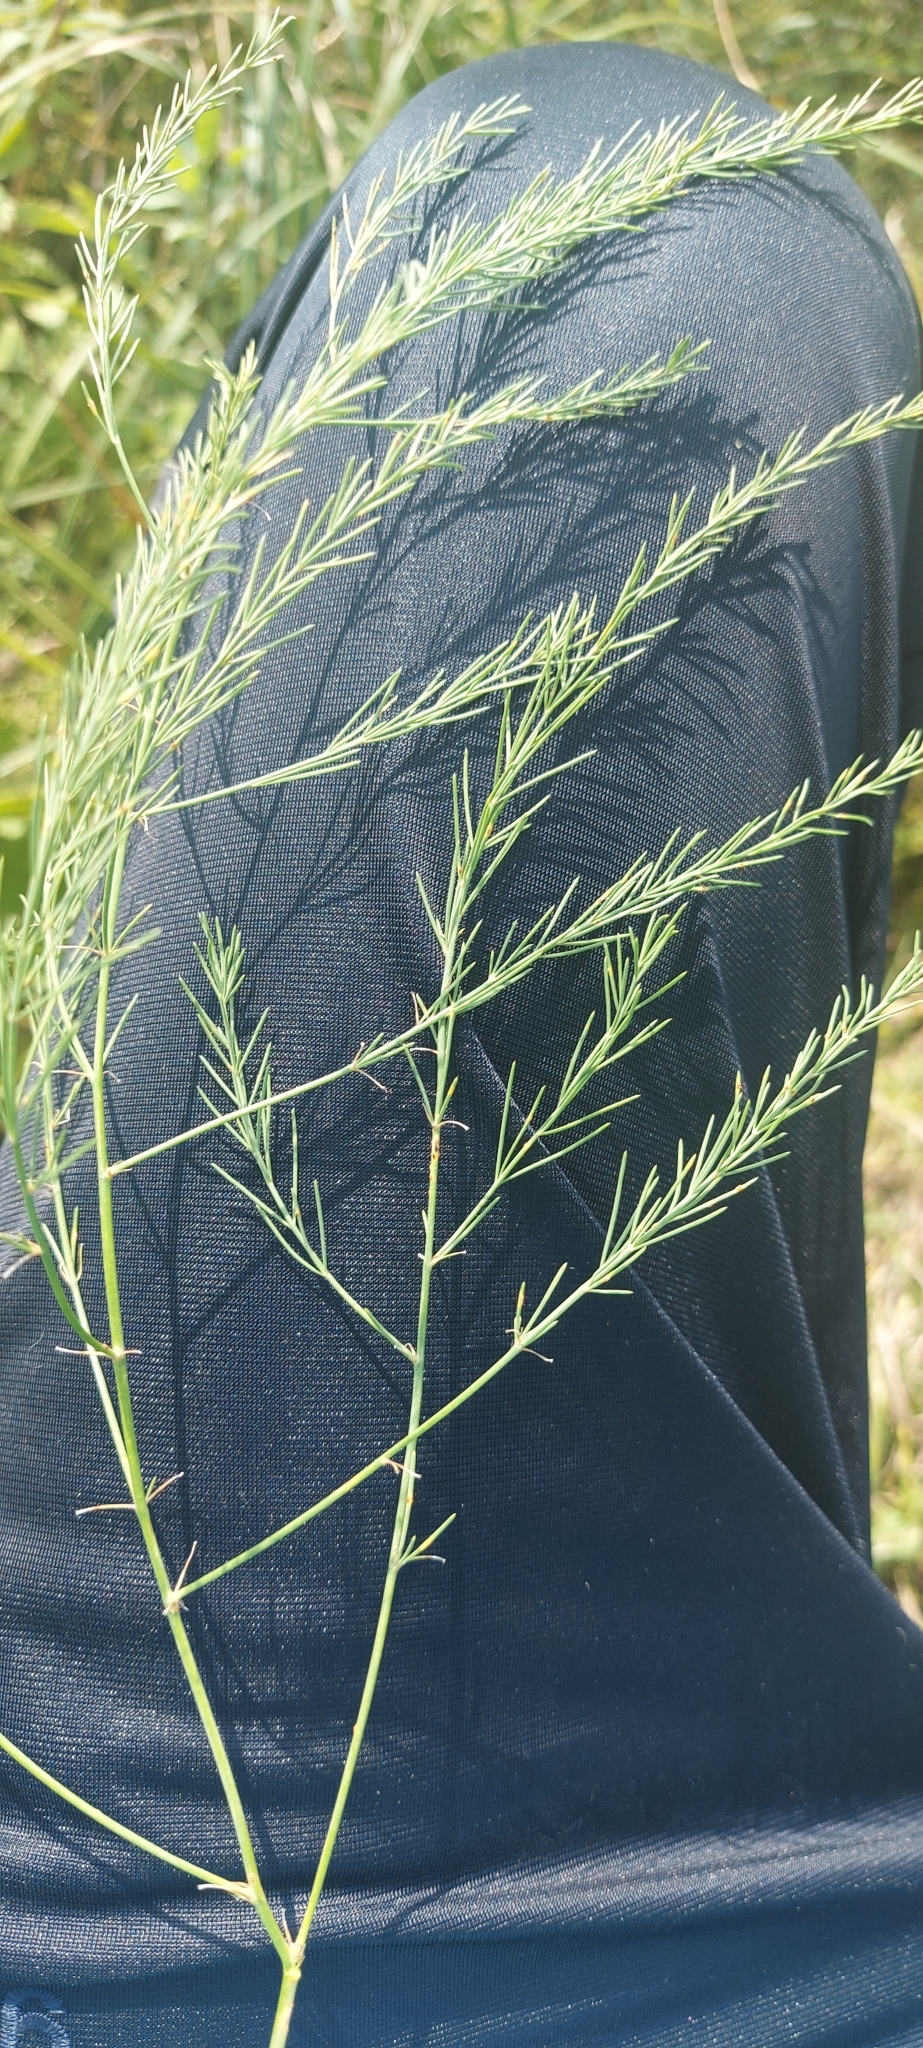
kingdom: Plantae
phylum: Tracheophyta
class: Liliopsida
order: Asparagales
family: Asparagaceae
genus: Asparagus
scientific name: Asparagus officinalis
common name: Garden asparagus
